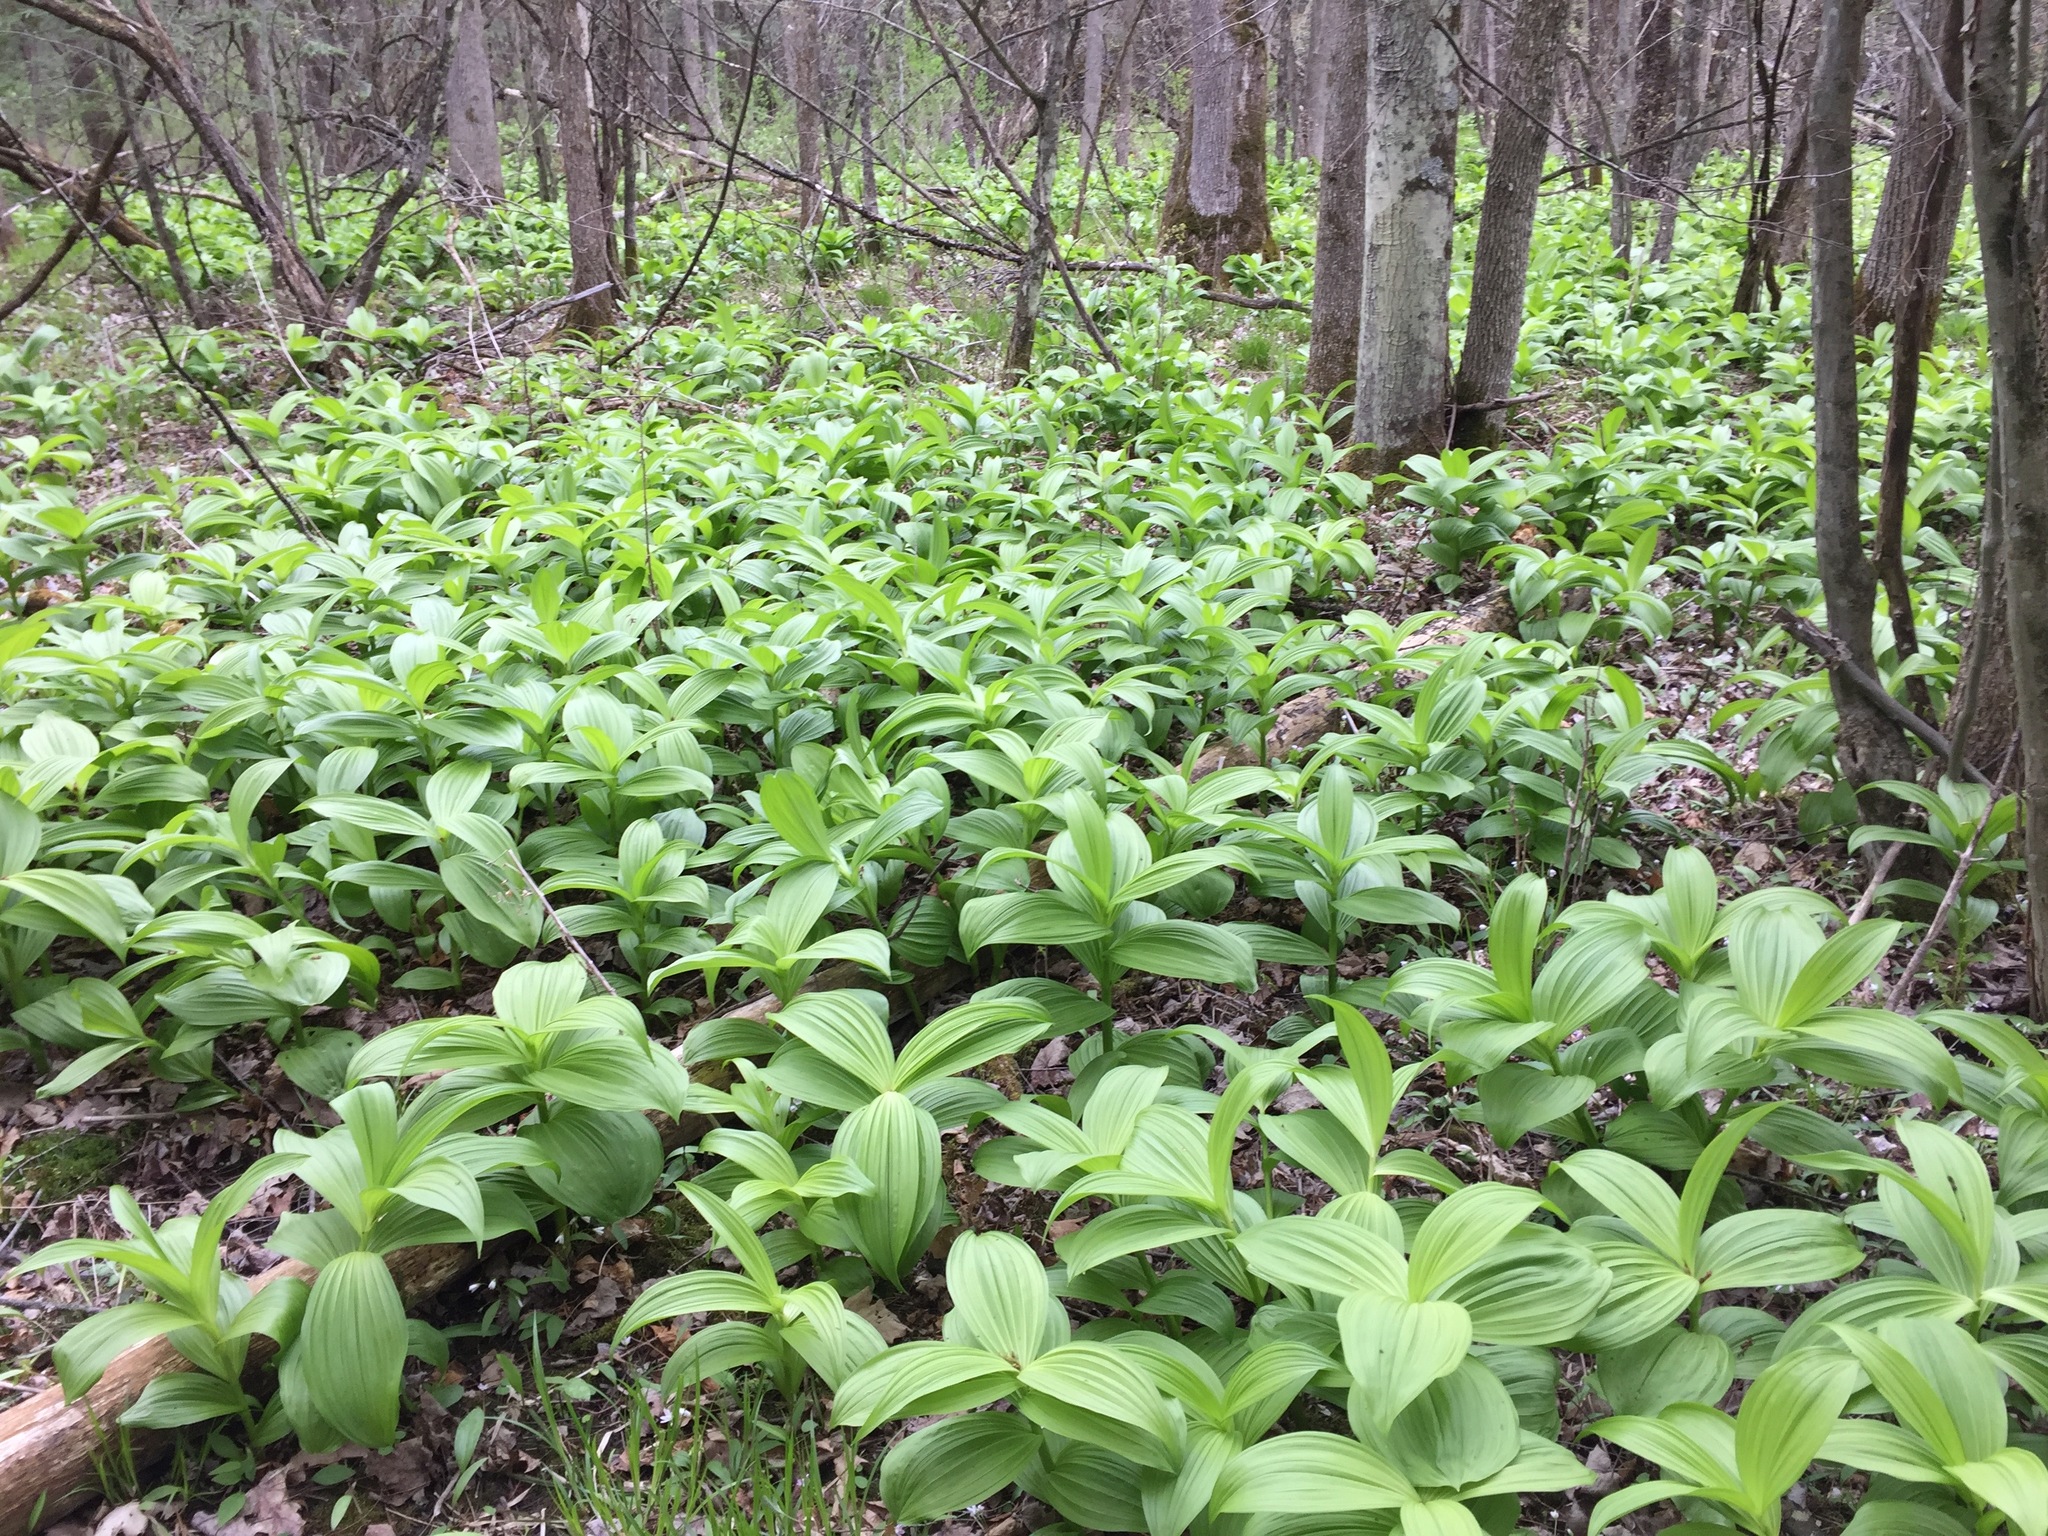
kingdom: Plantae
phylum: Tracheophyta
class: Liliopsida
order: Liliales
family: Melanthiaceae
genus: Veratrum
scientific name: Veratrum viride
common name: American false hellebore
